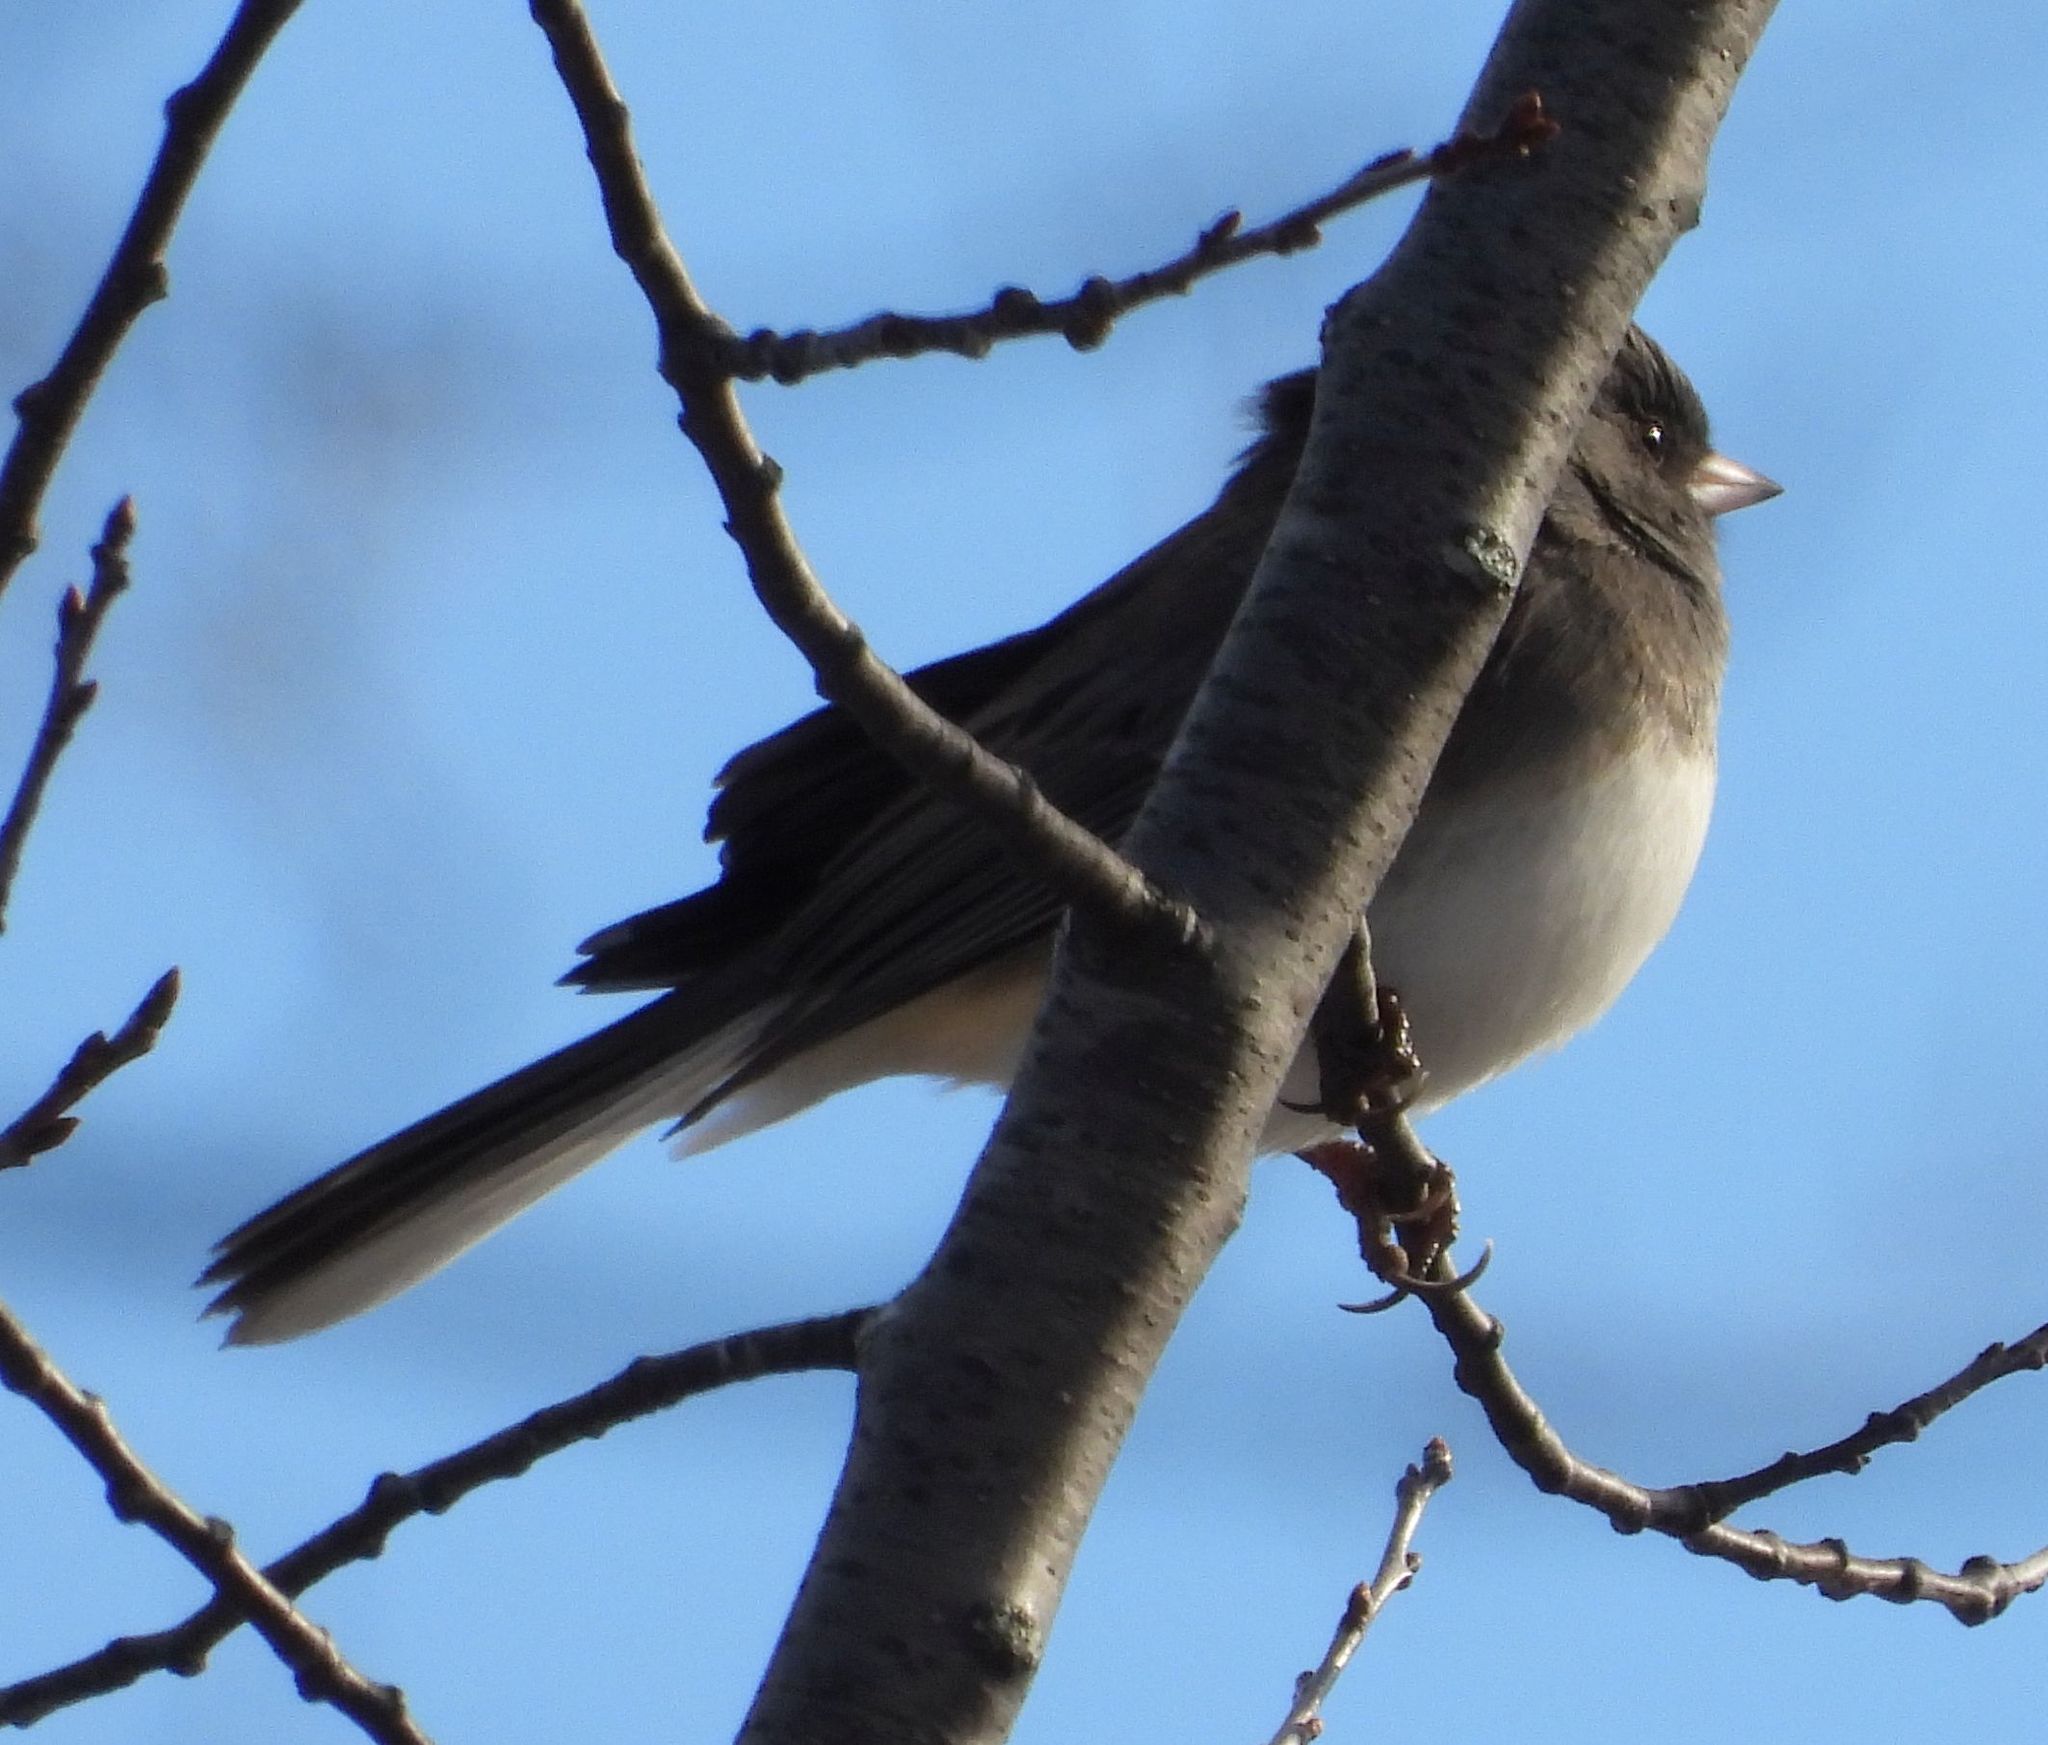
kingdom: Animalia
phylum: Chordata
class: Aves
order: Passeriformes
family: Passerellidae
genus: Junco
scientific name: Junco hyemalis
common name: Dark-eyed junco
